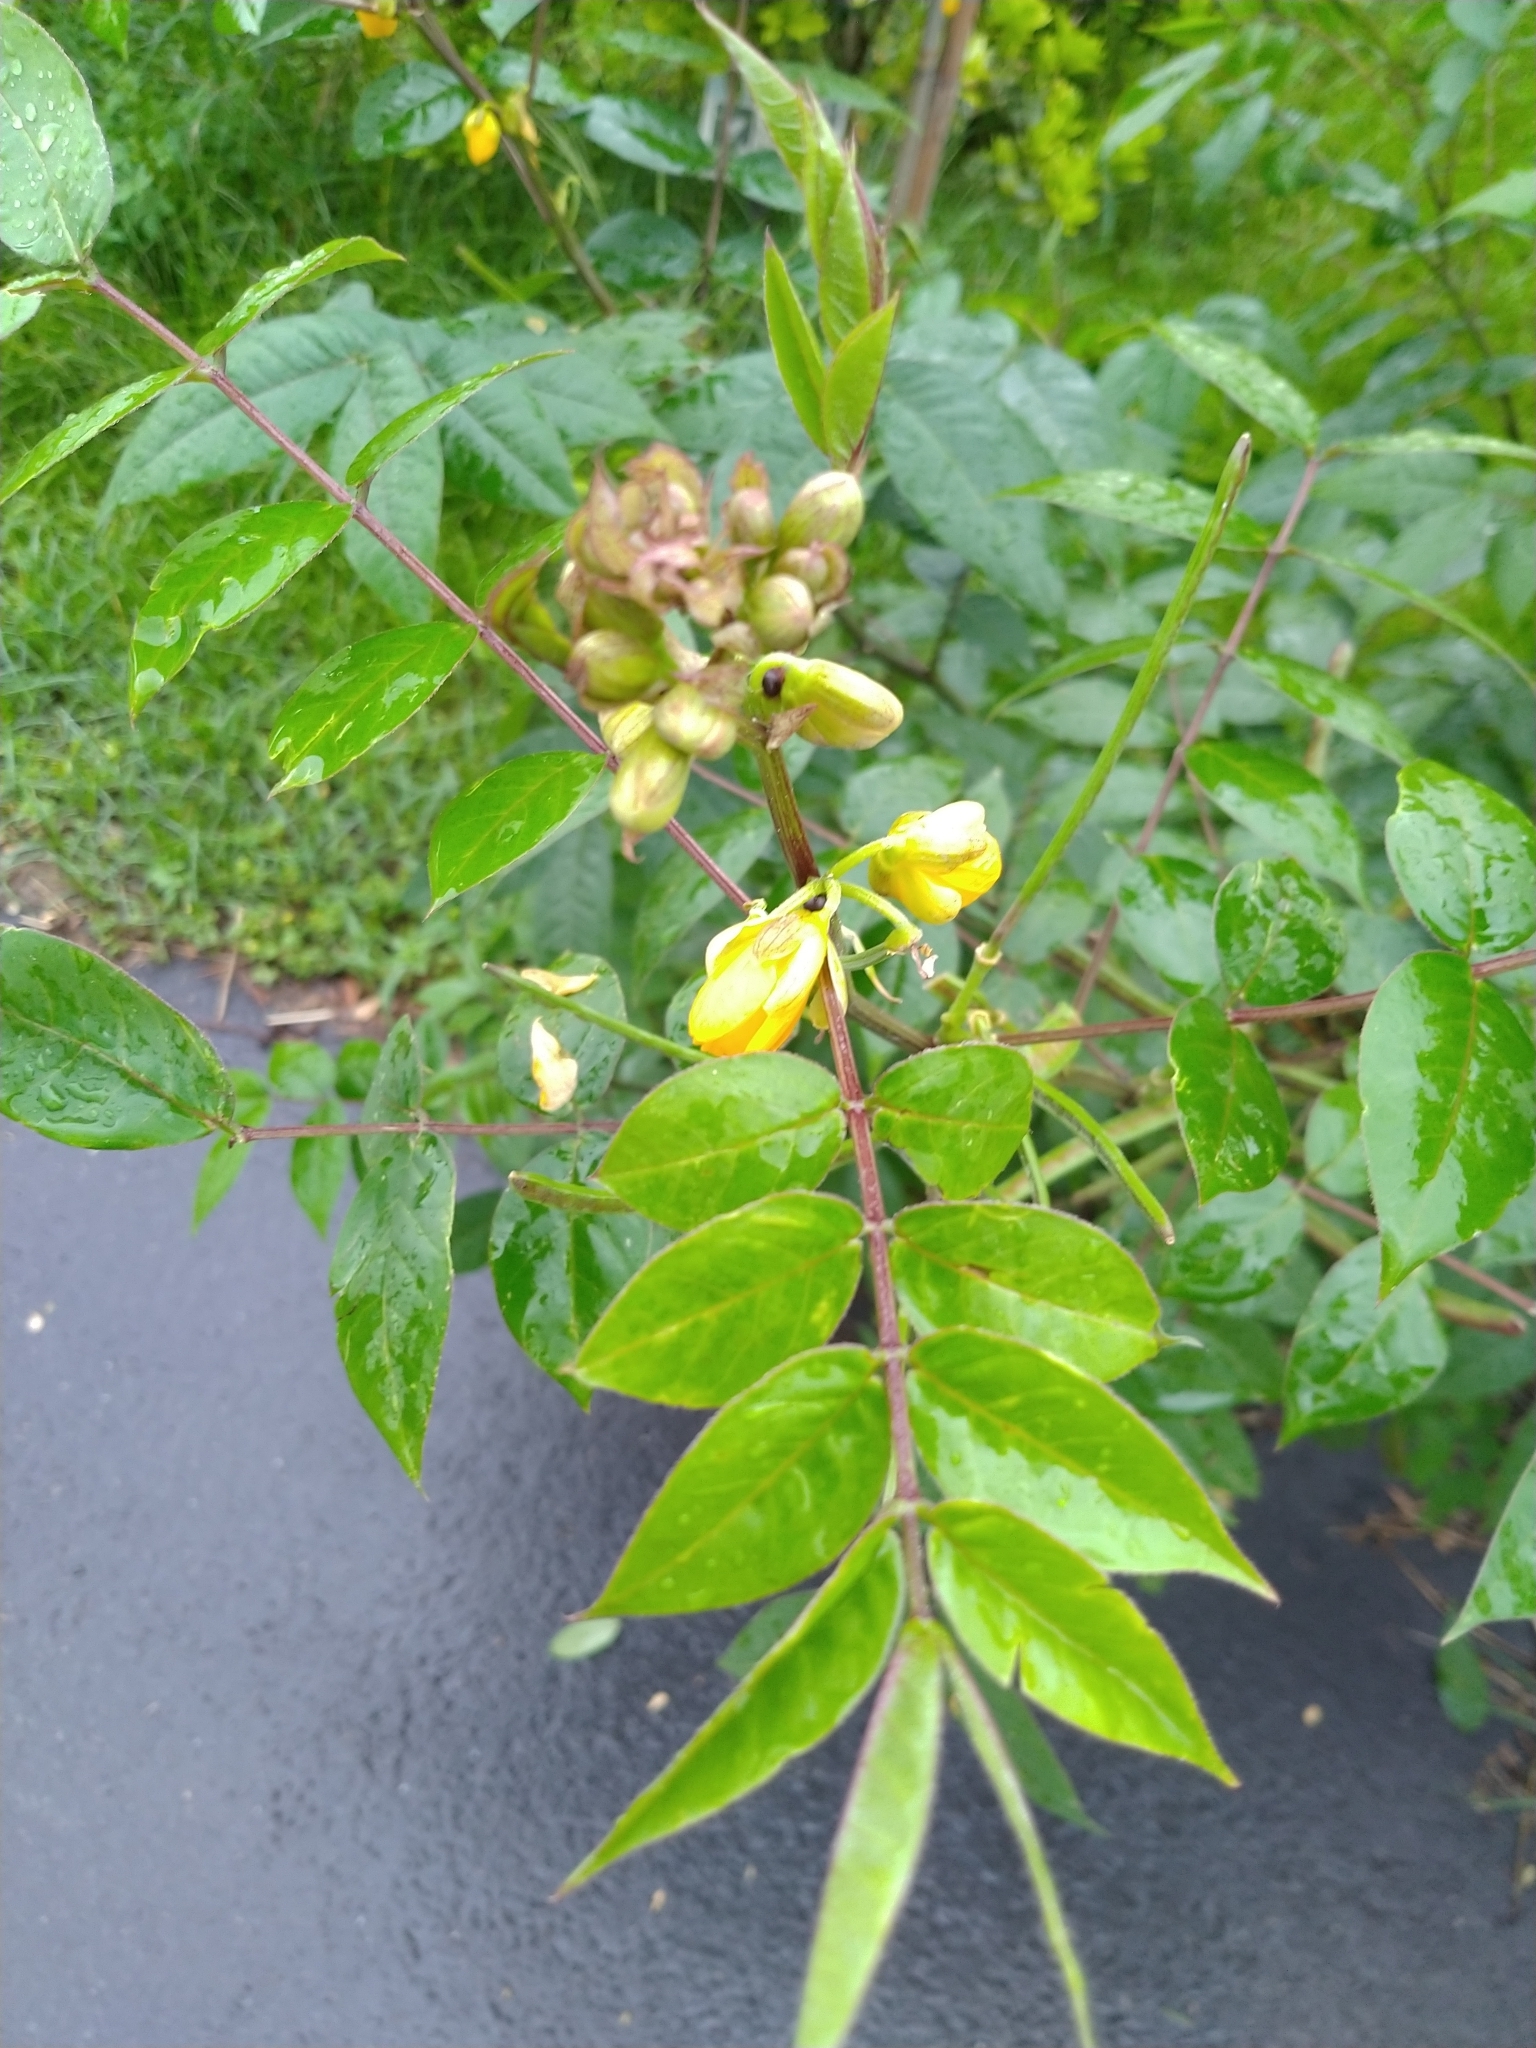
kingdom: Plantae
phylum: Tracheophyta
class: Magnoliopsida
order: Fabales
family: Fabaceae
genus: Senna
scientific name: Senna occidentalis
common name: Septicweed
